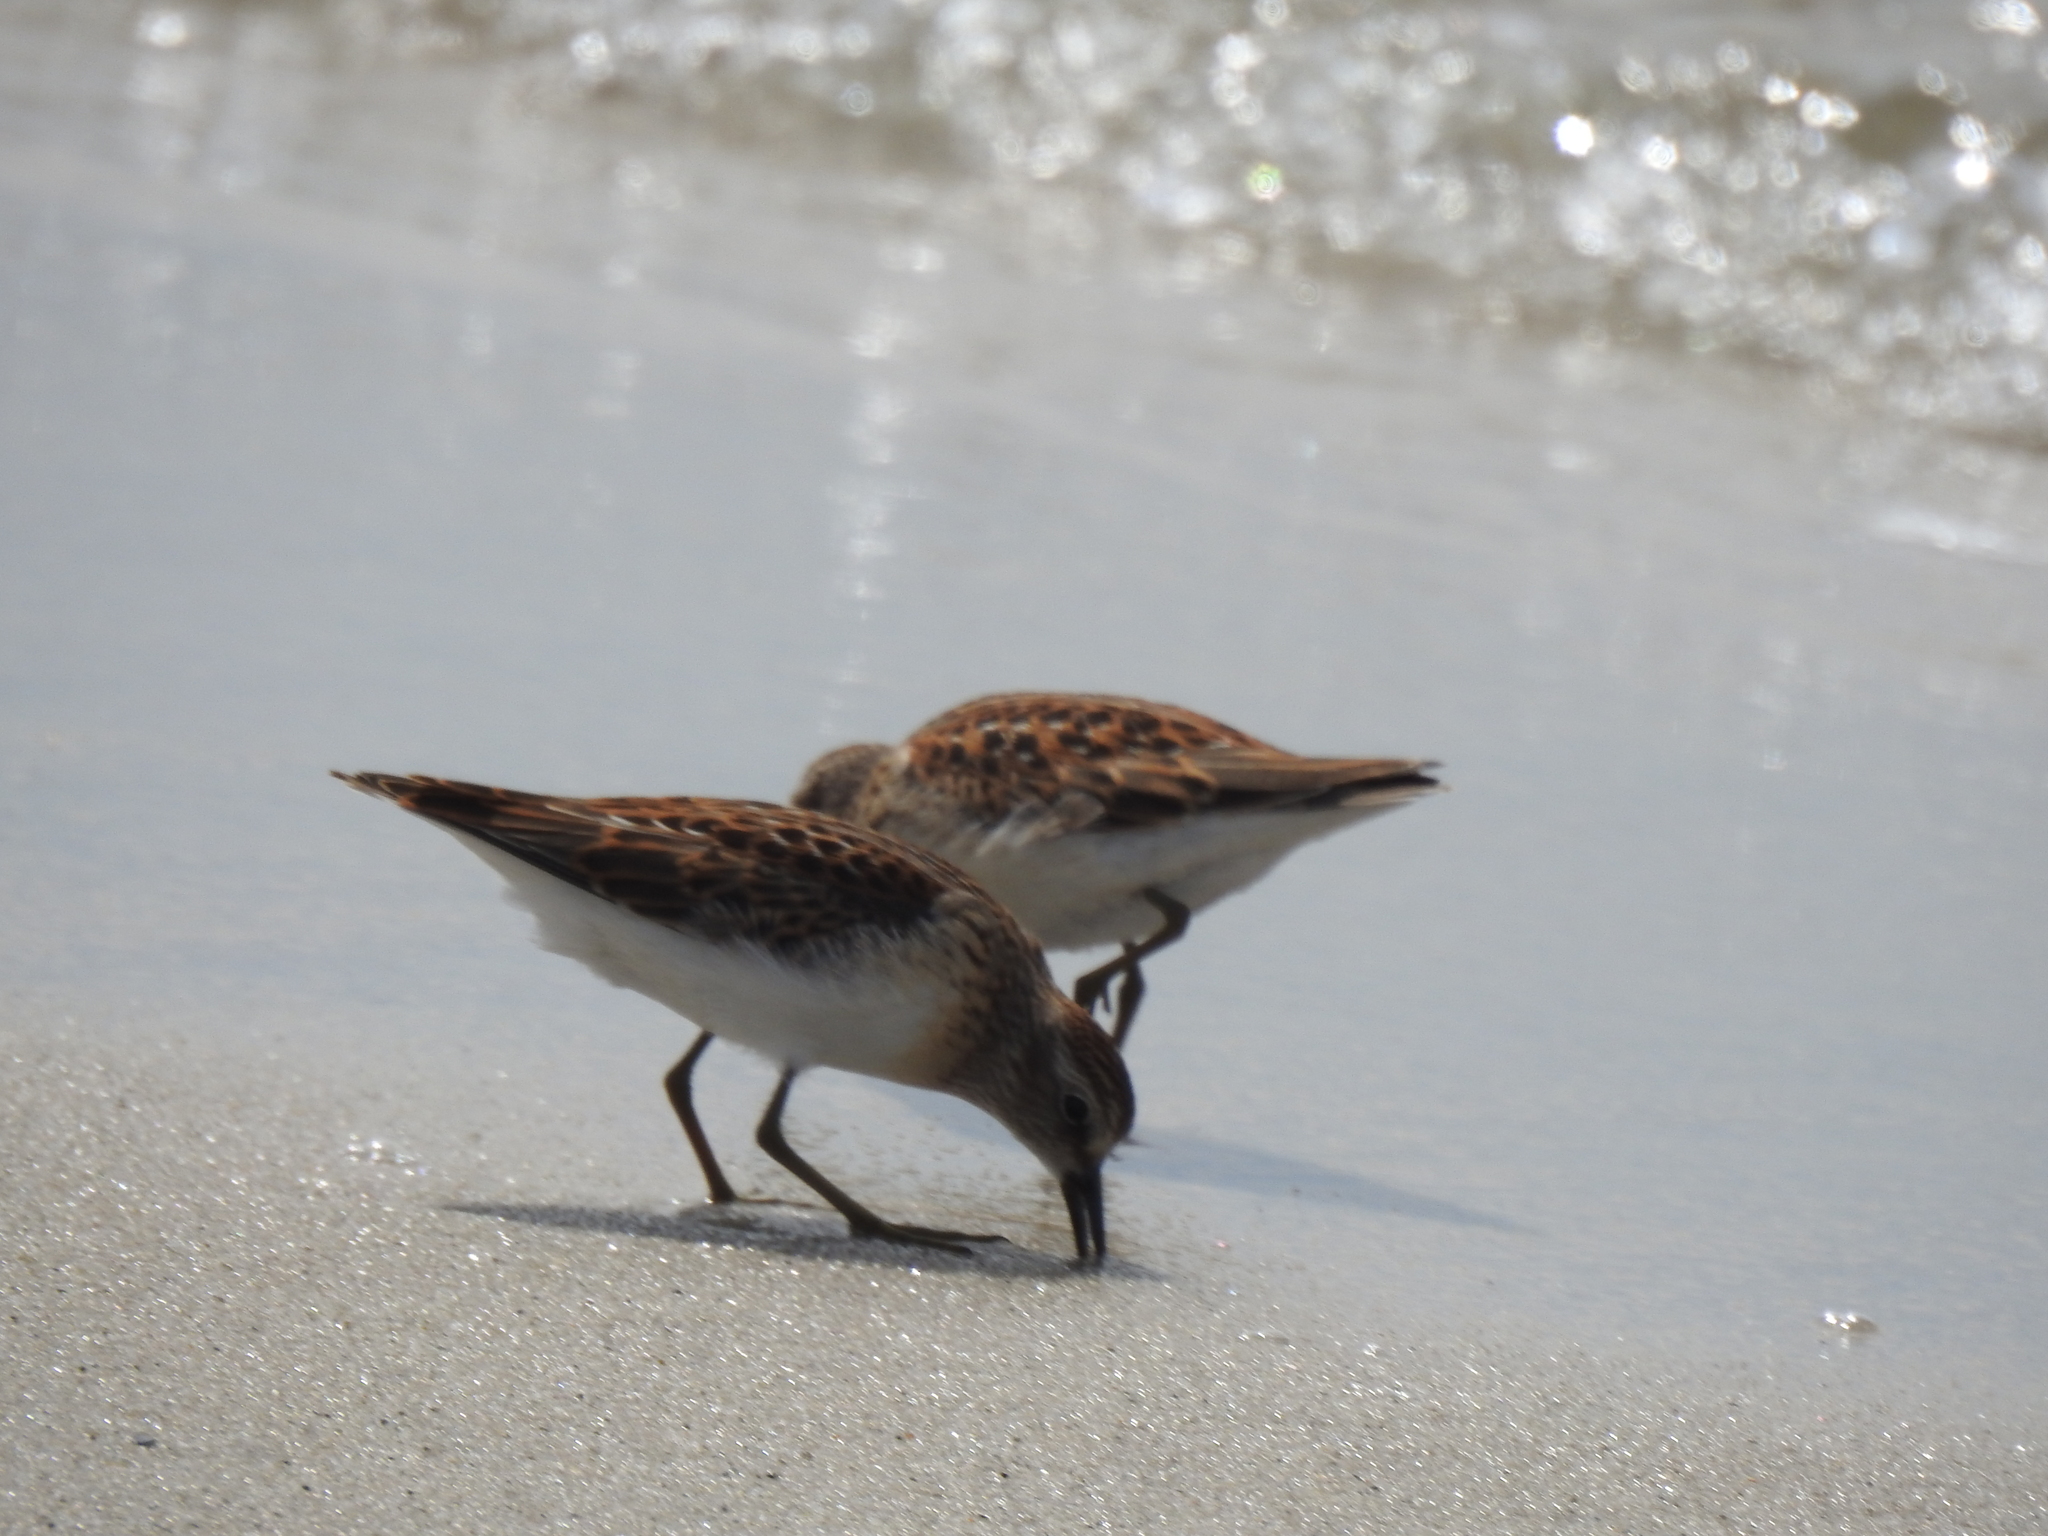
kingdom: Animalia
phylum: Chordata
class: Aves
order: Charadriiformes
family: Scolopacidae
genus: Calidris
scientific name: Calidris minutilla
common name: Least sandpiper
